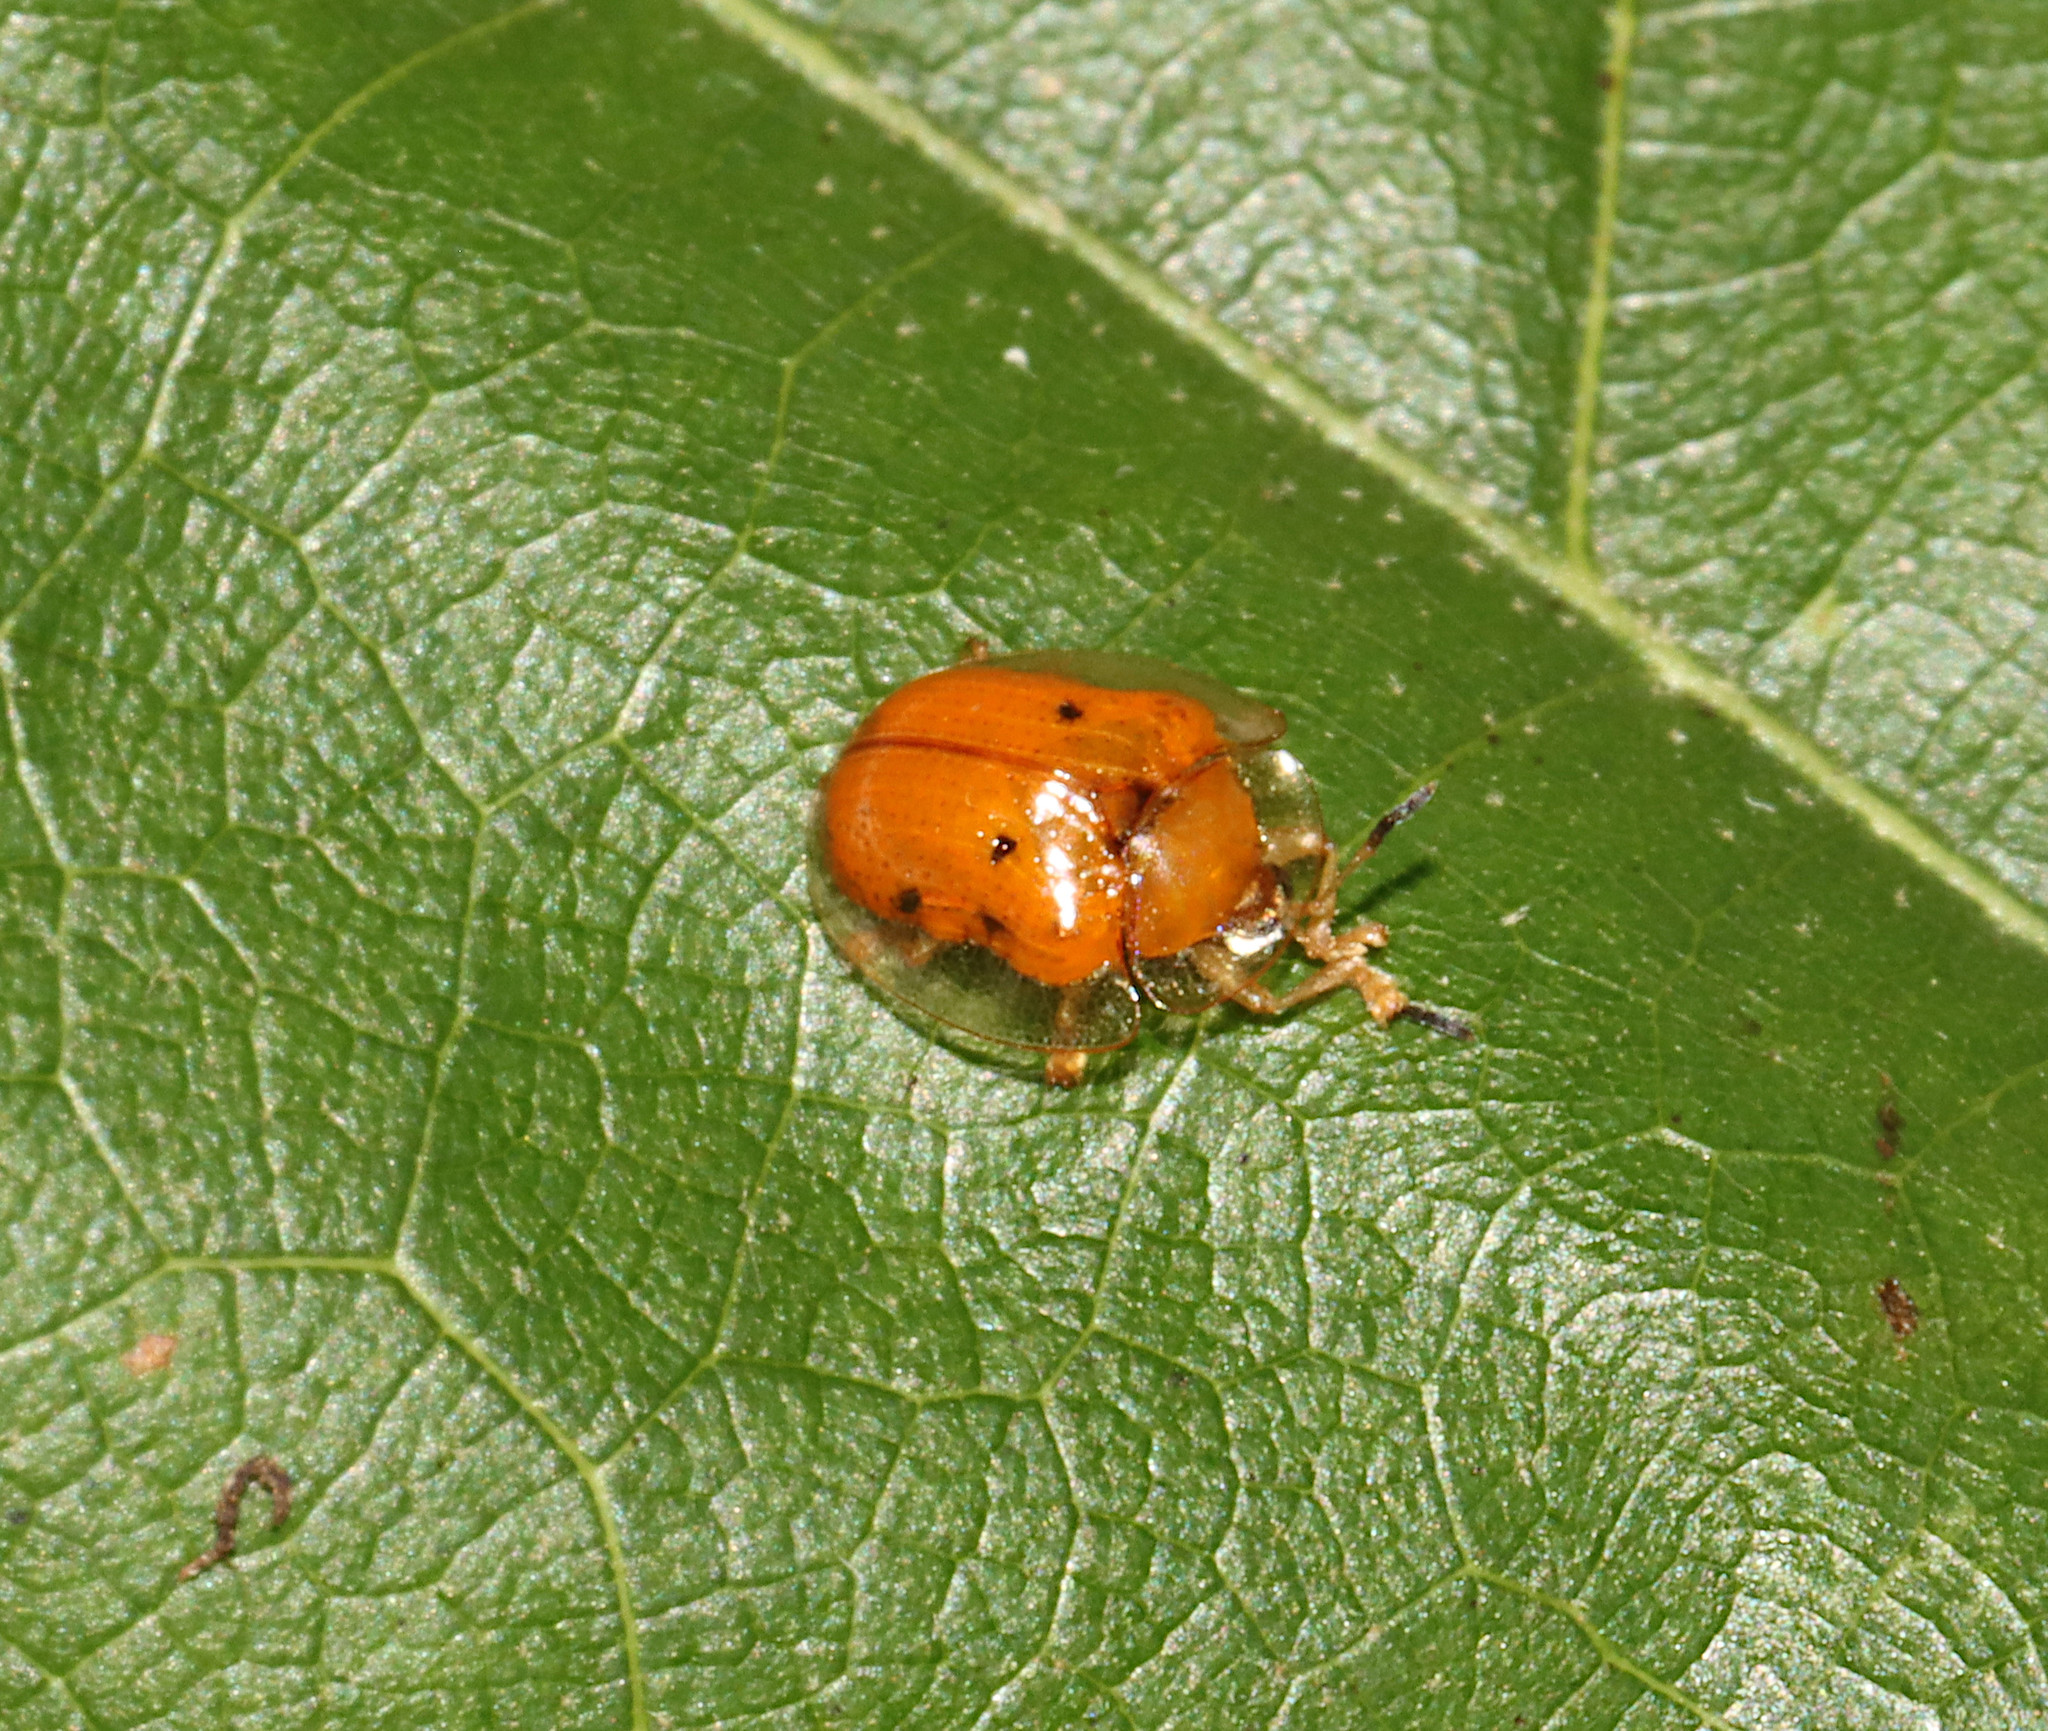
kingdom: Animalia
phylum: Arthropoda
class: Insecta
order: Coleoptera
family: Chrysomelidae
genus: Charidotella
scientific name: Charidotella sexpunctata
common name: Golden tortoise beetle
